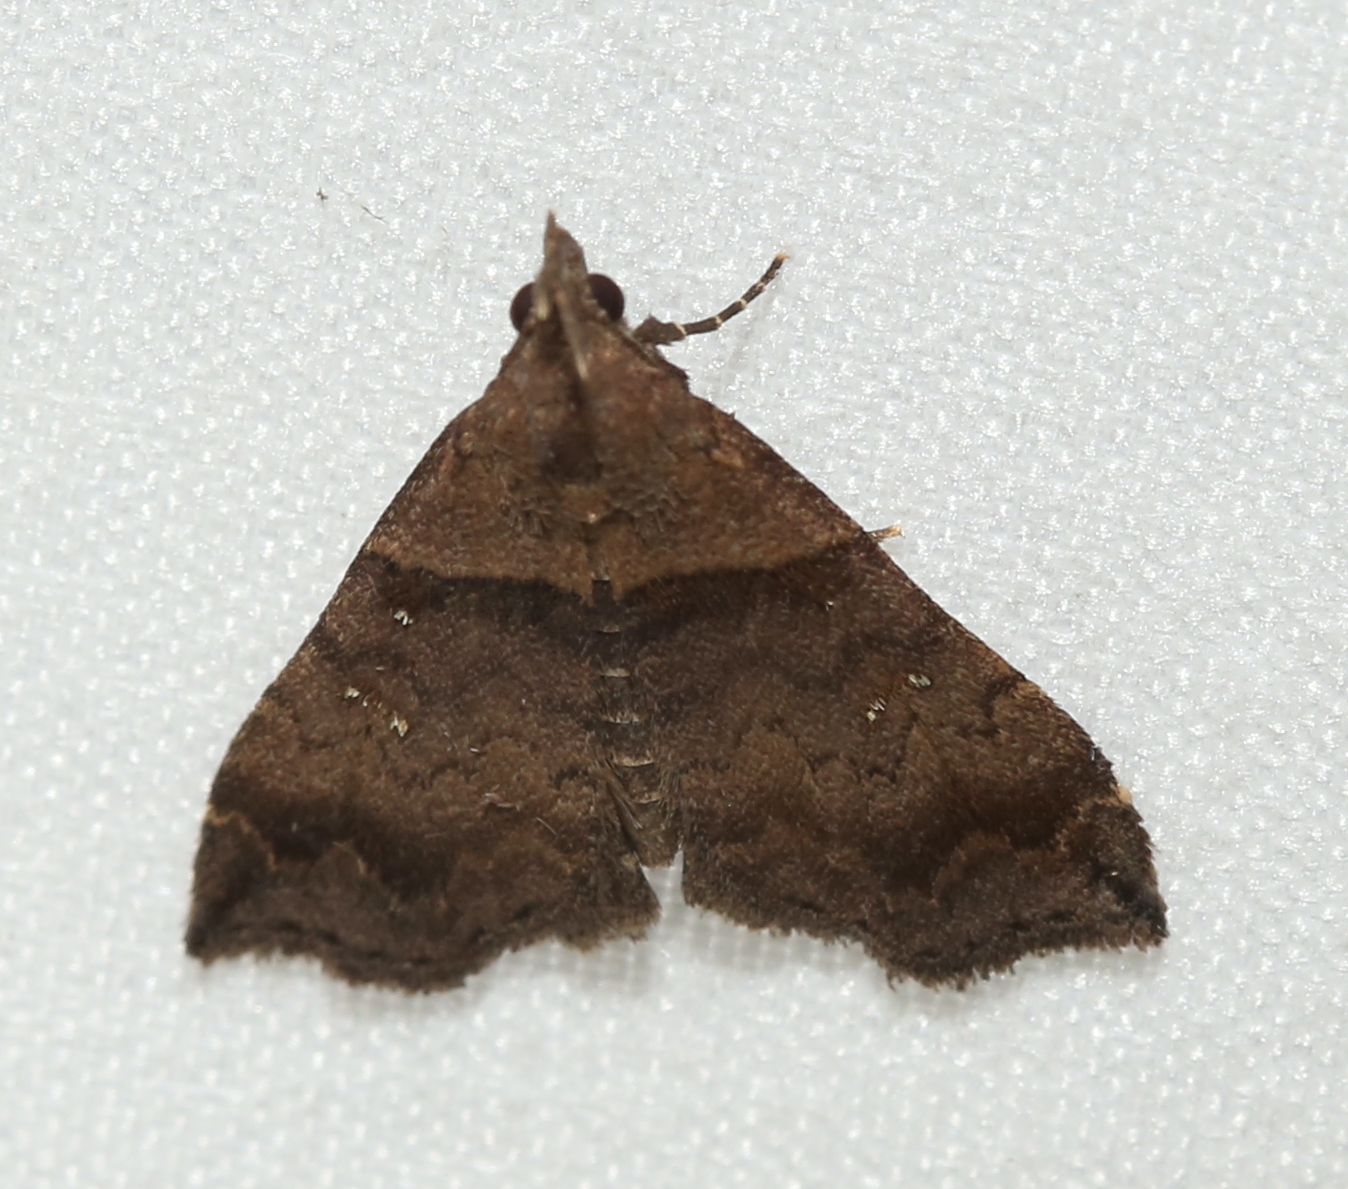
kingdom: Animalia
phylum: Arthropoda
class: Insecta
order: Lepidoptera
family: Erebidae
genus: Lascoria
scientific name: Lascoria ambigualis
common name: Ambiguous moth
